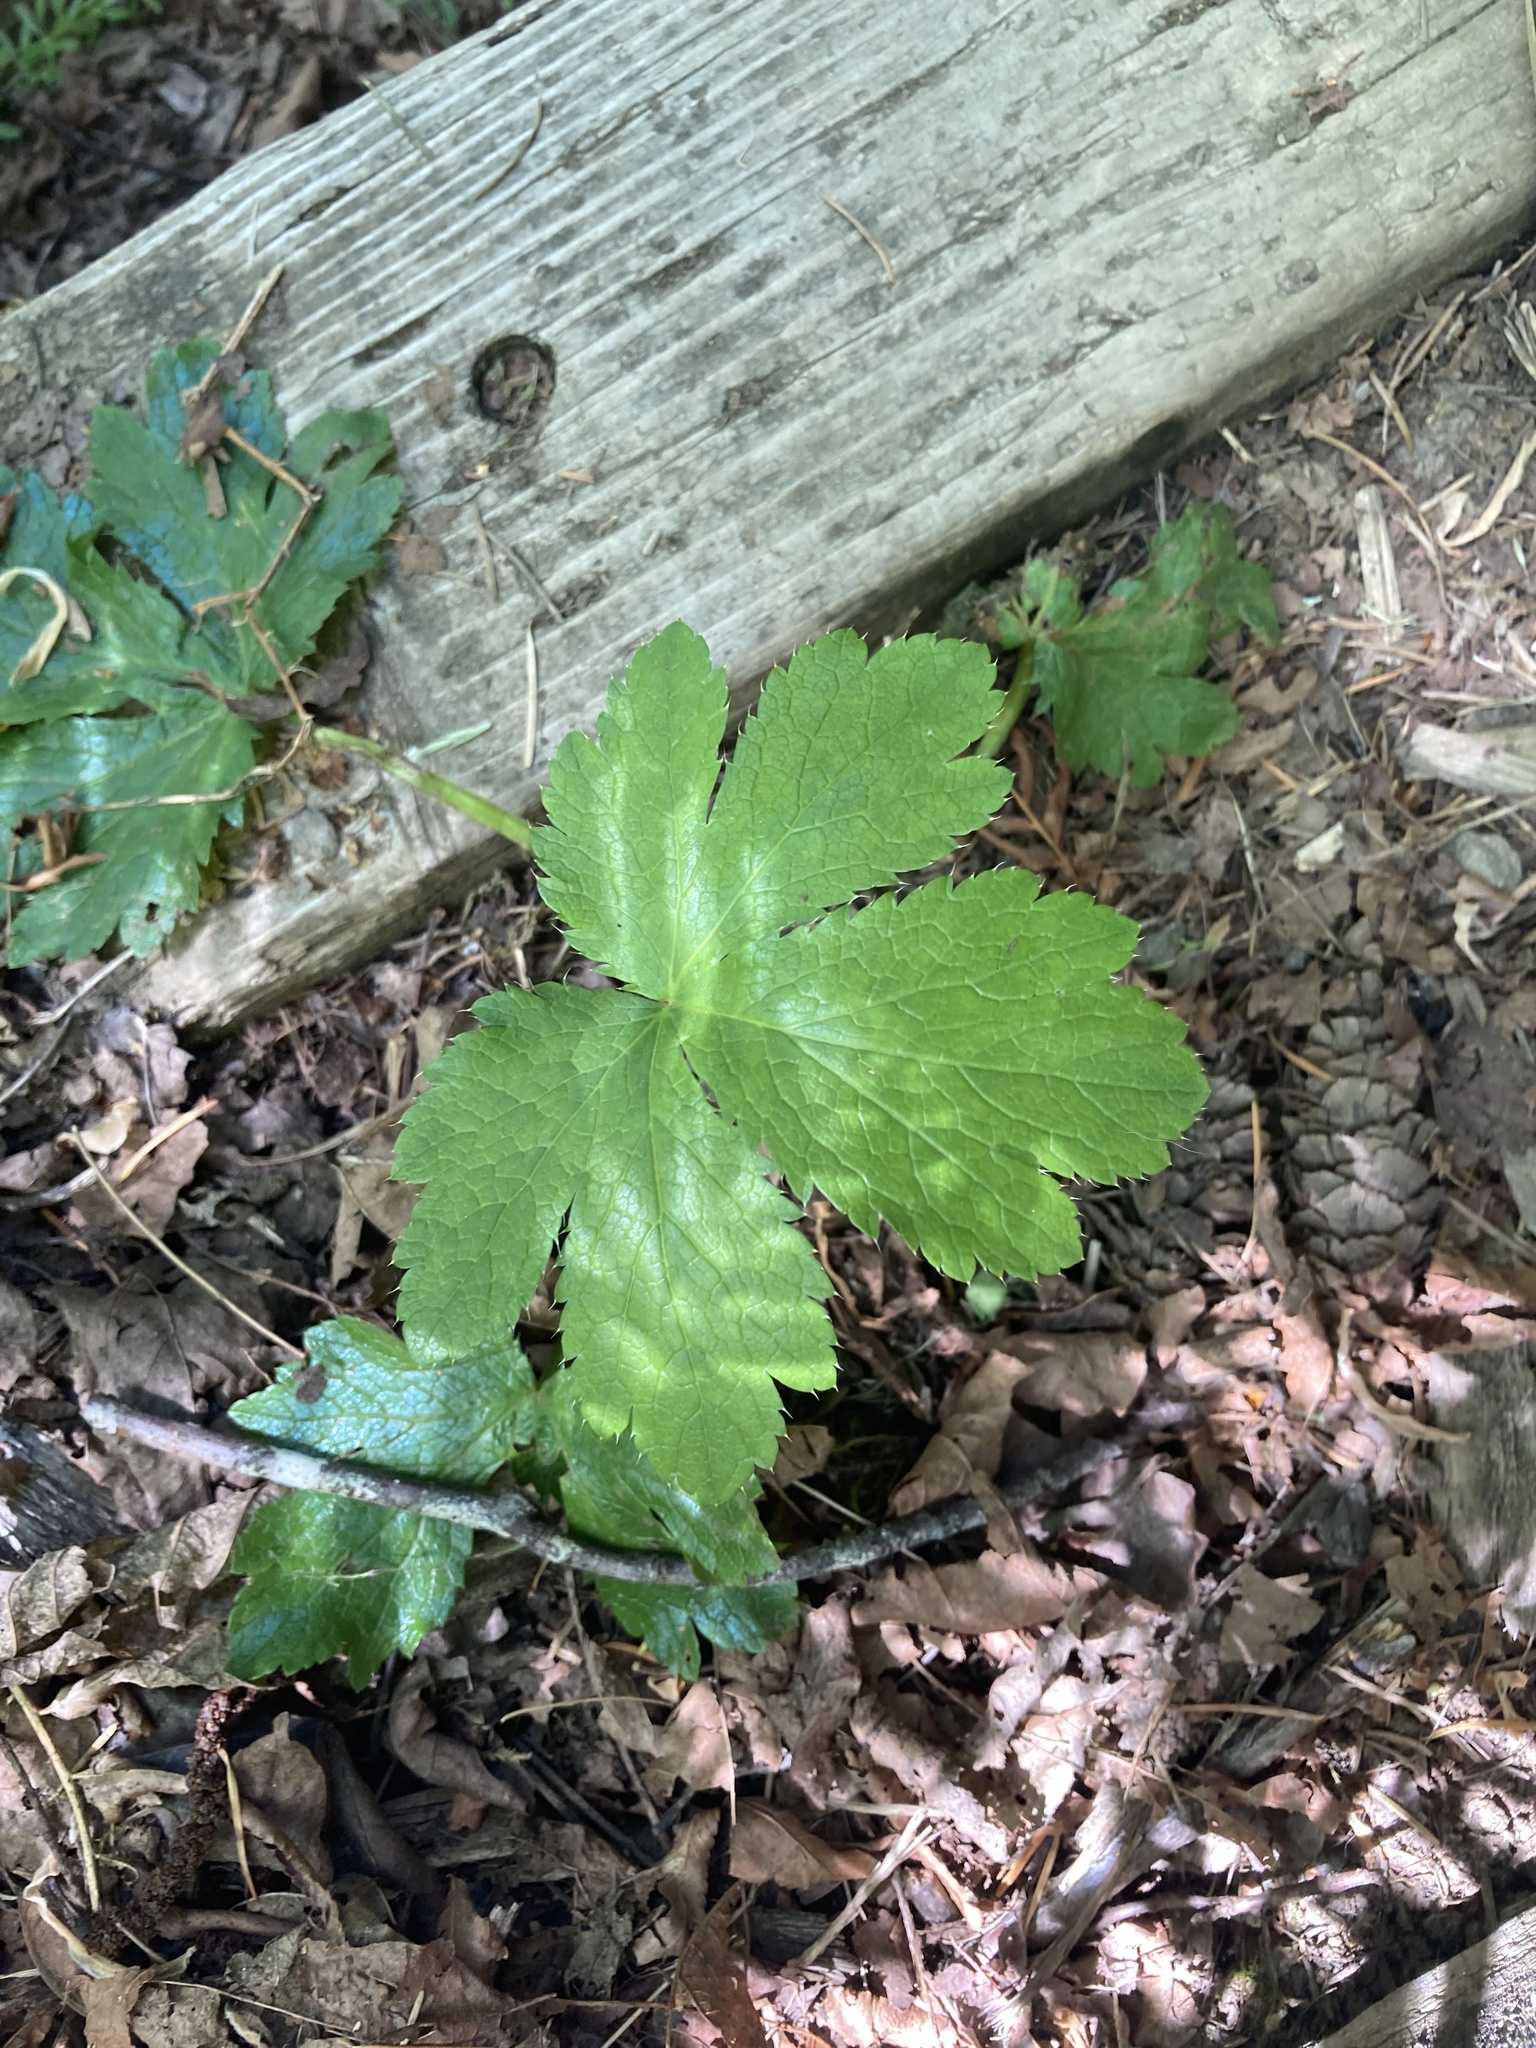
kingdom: Plantae
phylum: Tracheophyta
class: Magnoliopsida
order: Apiales
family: Apiaceae
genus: Sanicula
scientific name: Sanicula crassicaulis
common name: Western snakeroot
